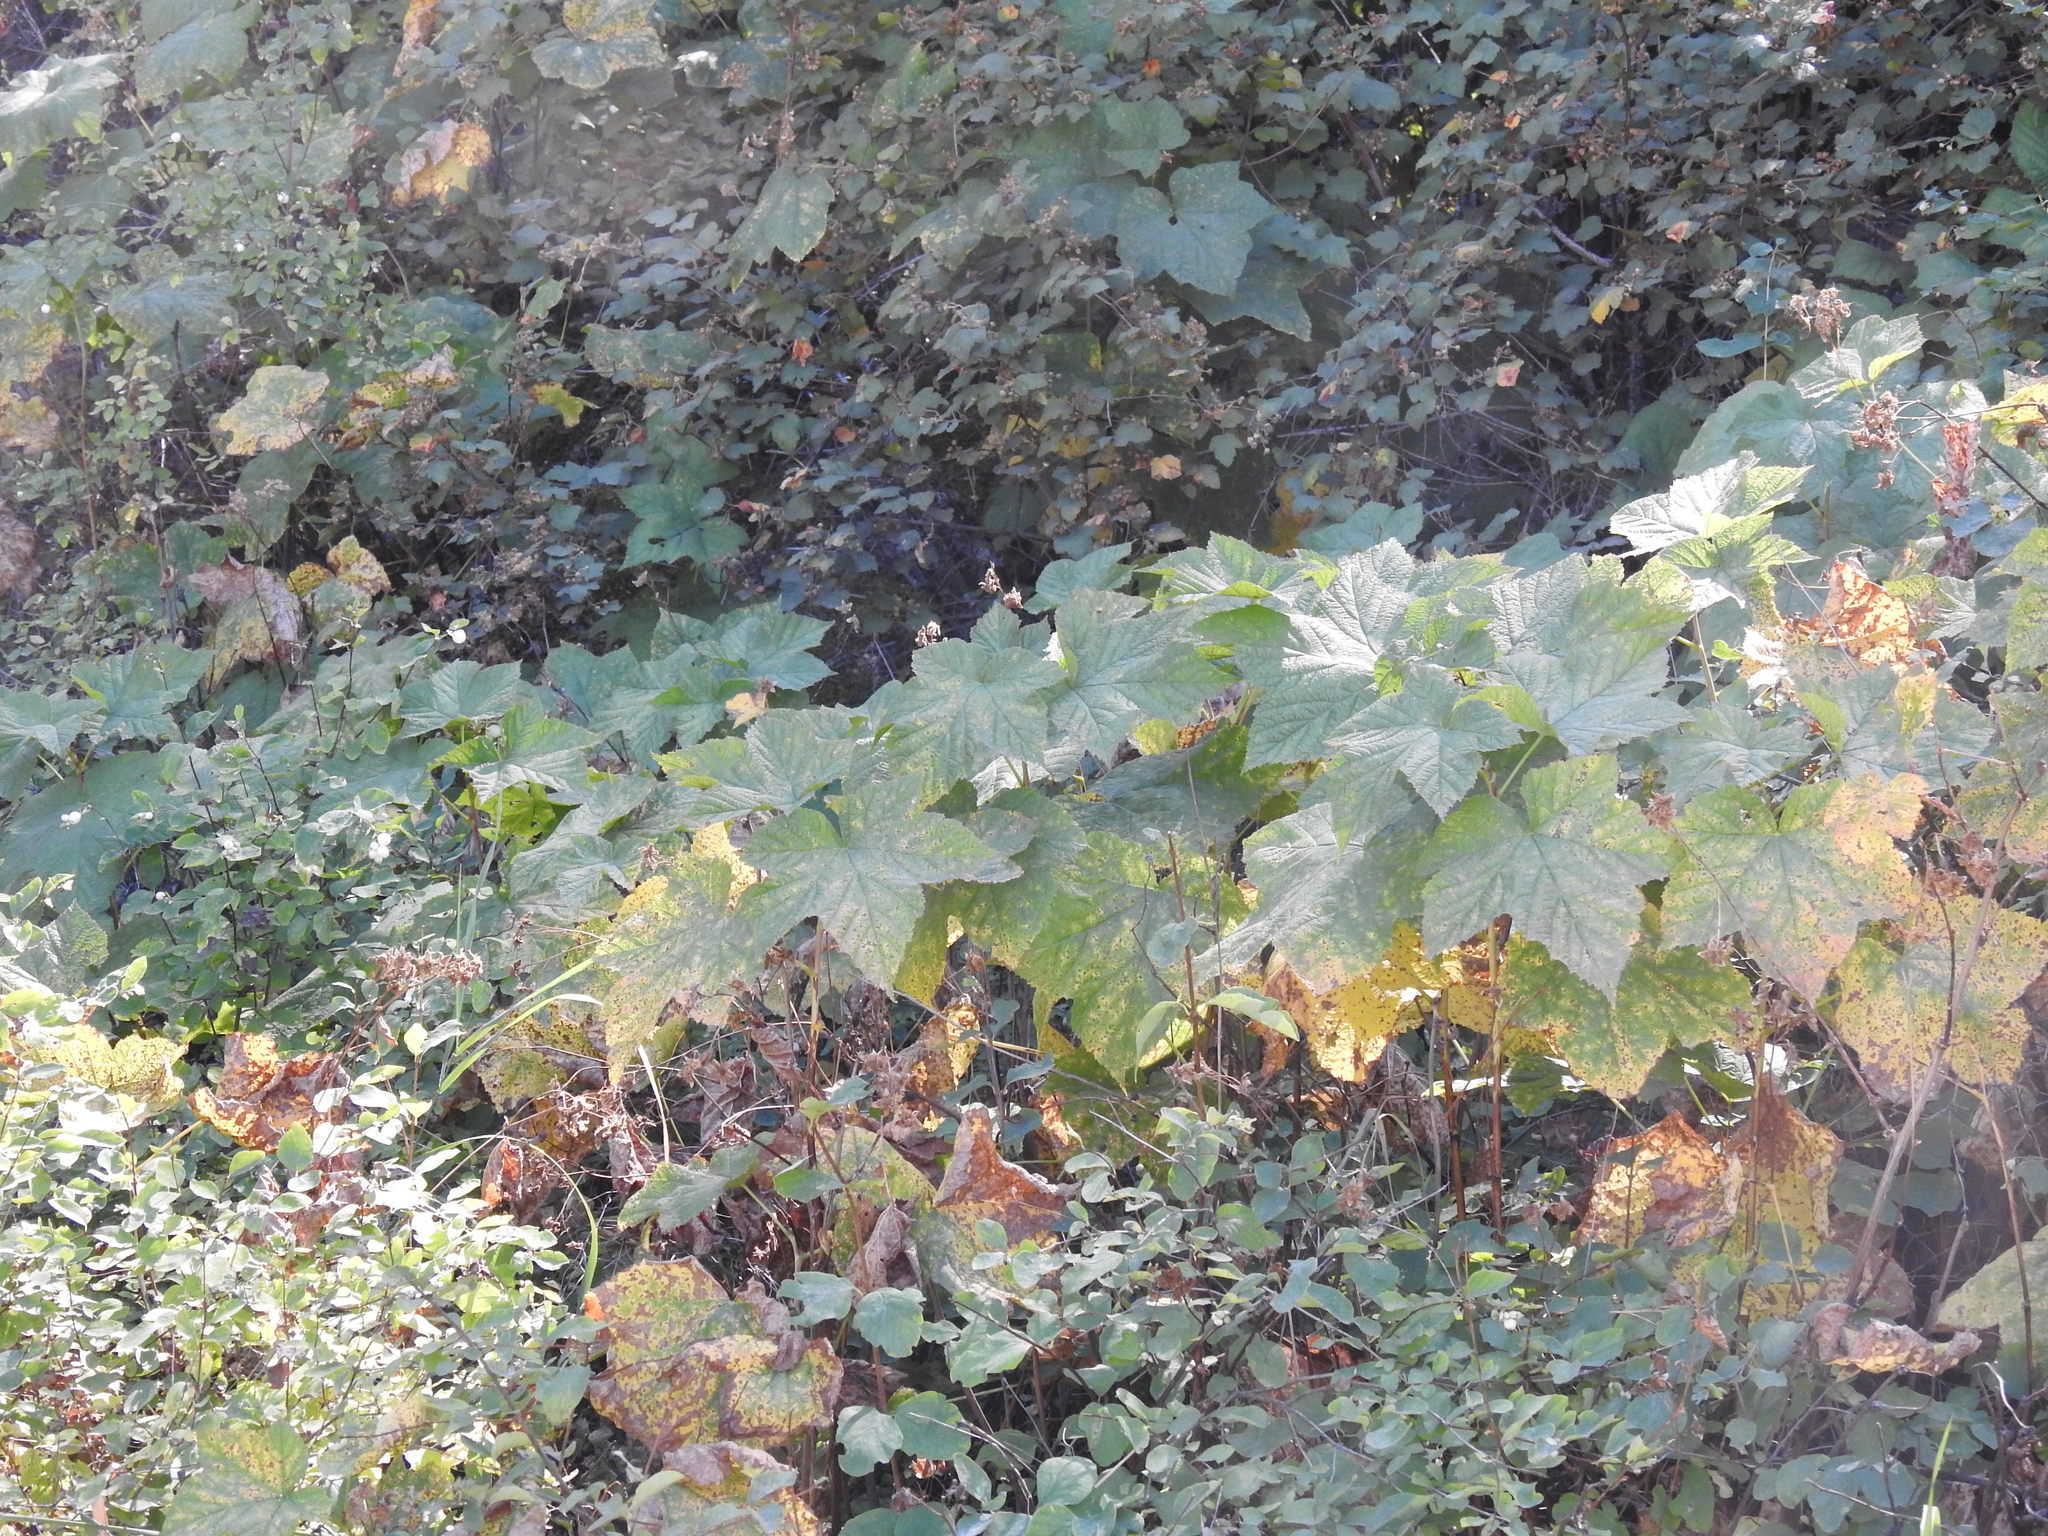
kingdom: Plantae
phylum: Tracheophyta
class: Magnoliopsida
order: Rosales
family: Rosaceae
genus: Rubus
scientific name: Rubus parviflorus
